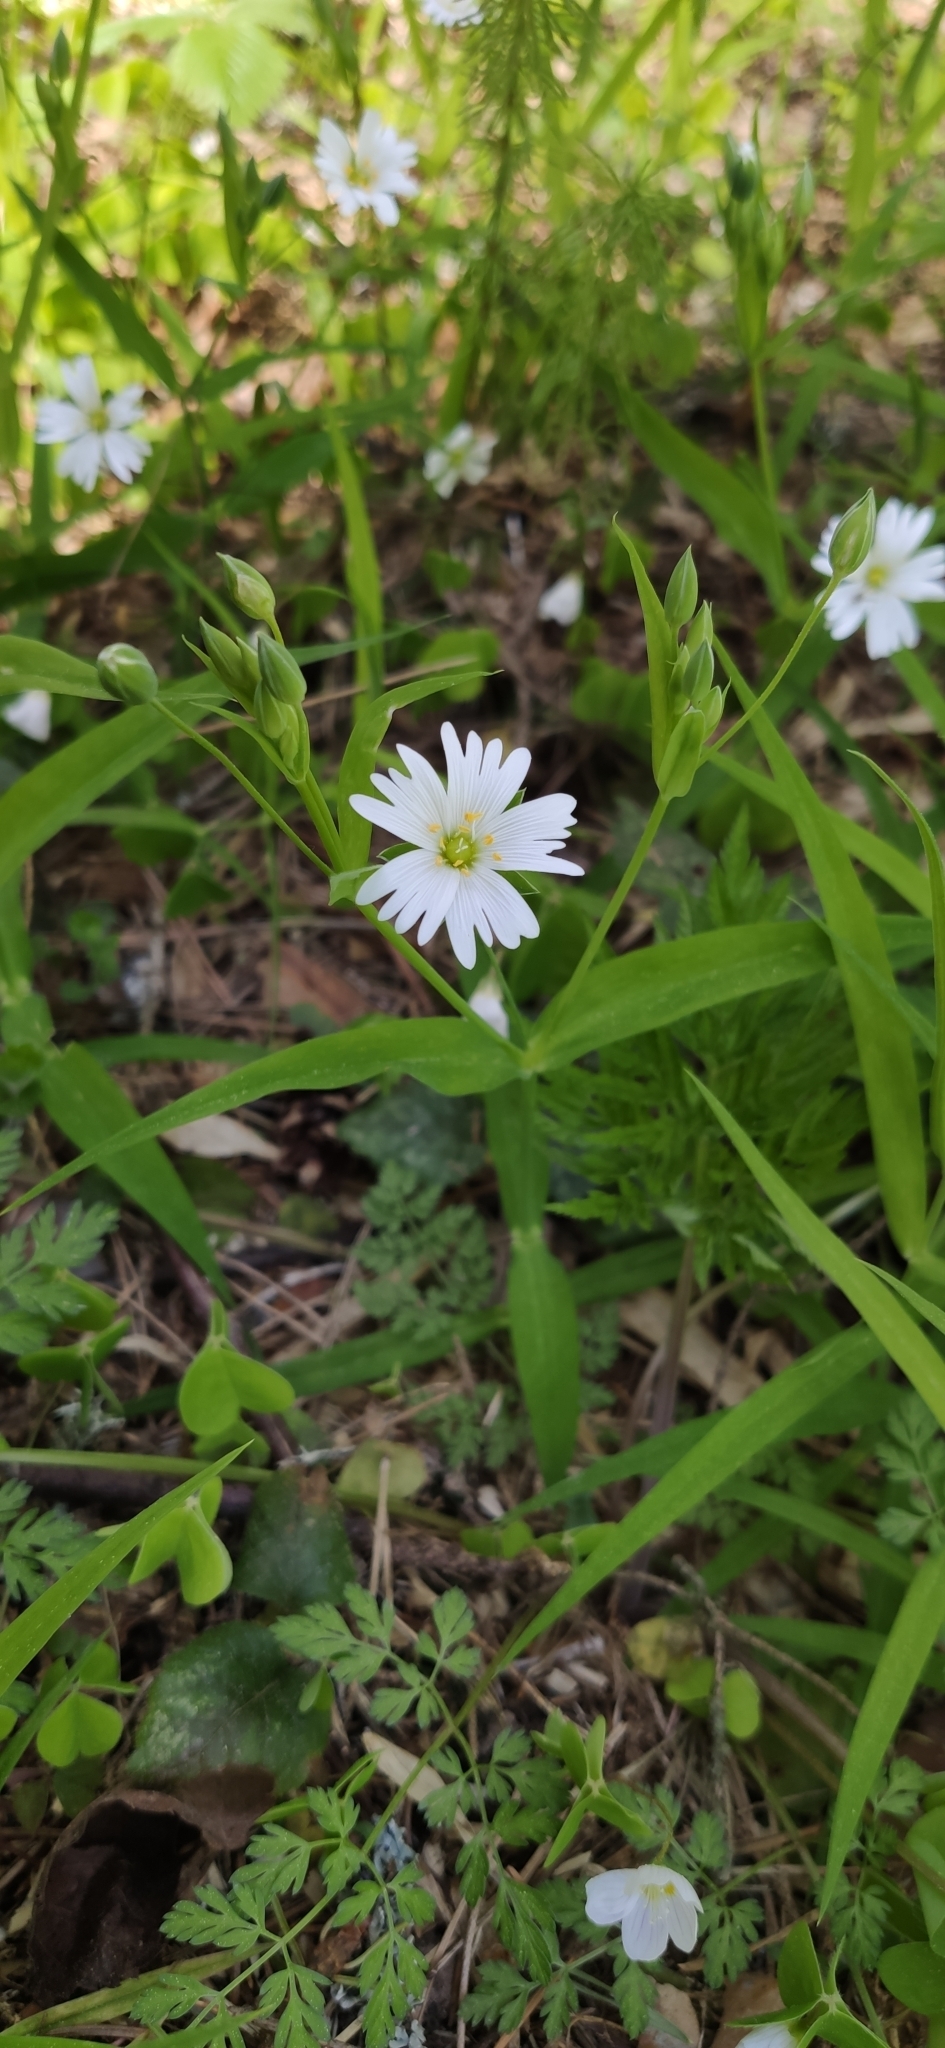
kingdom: Plantae
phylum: Tracheophyta
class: Magnoliopsida
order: Caryophyllales
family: Caryophyllaceae
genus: Rabelera
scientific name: Rabelera holostea
